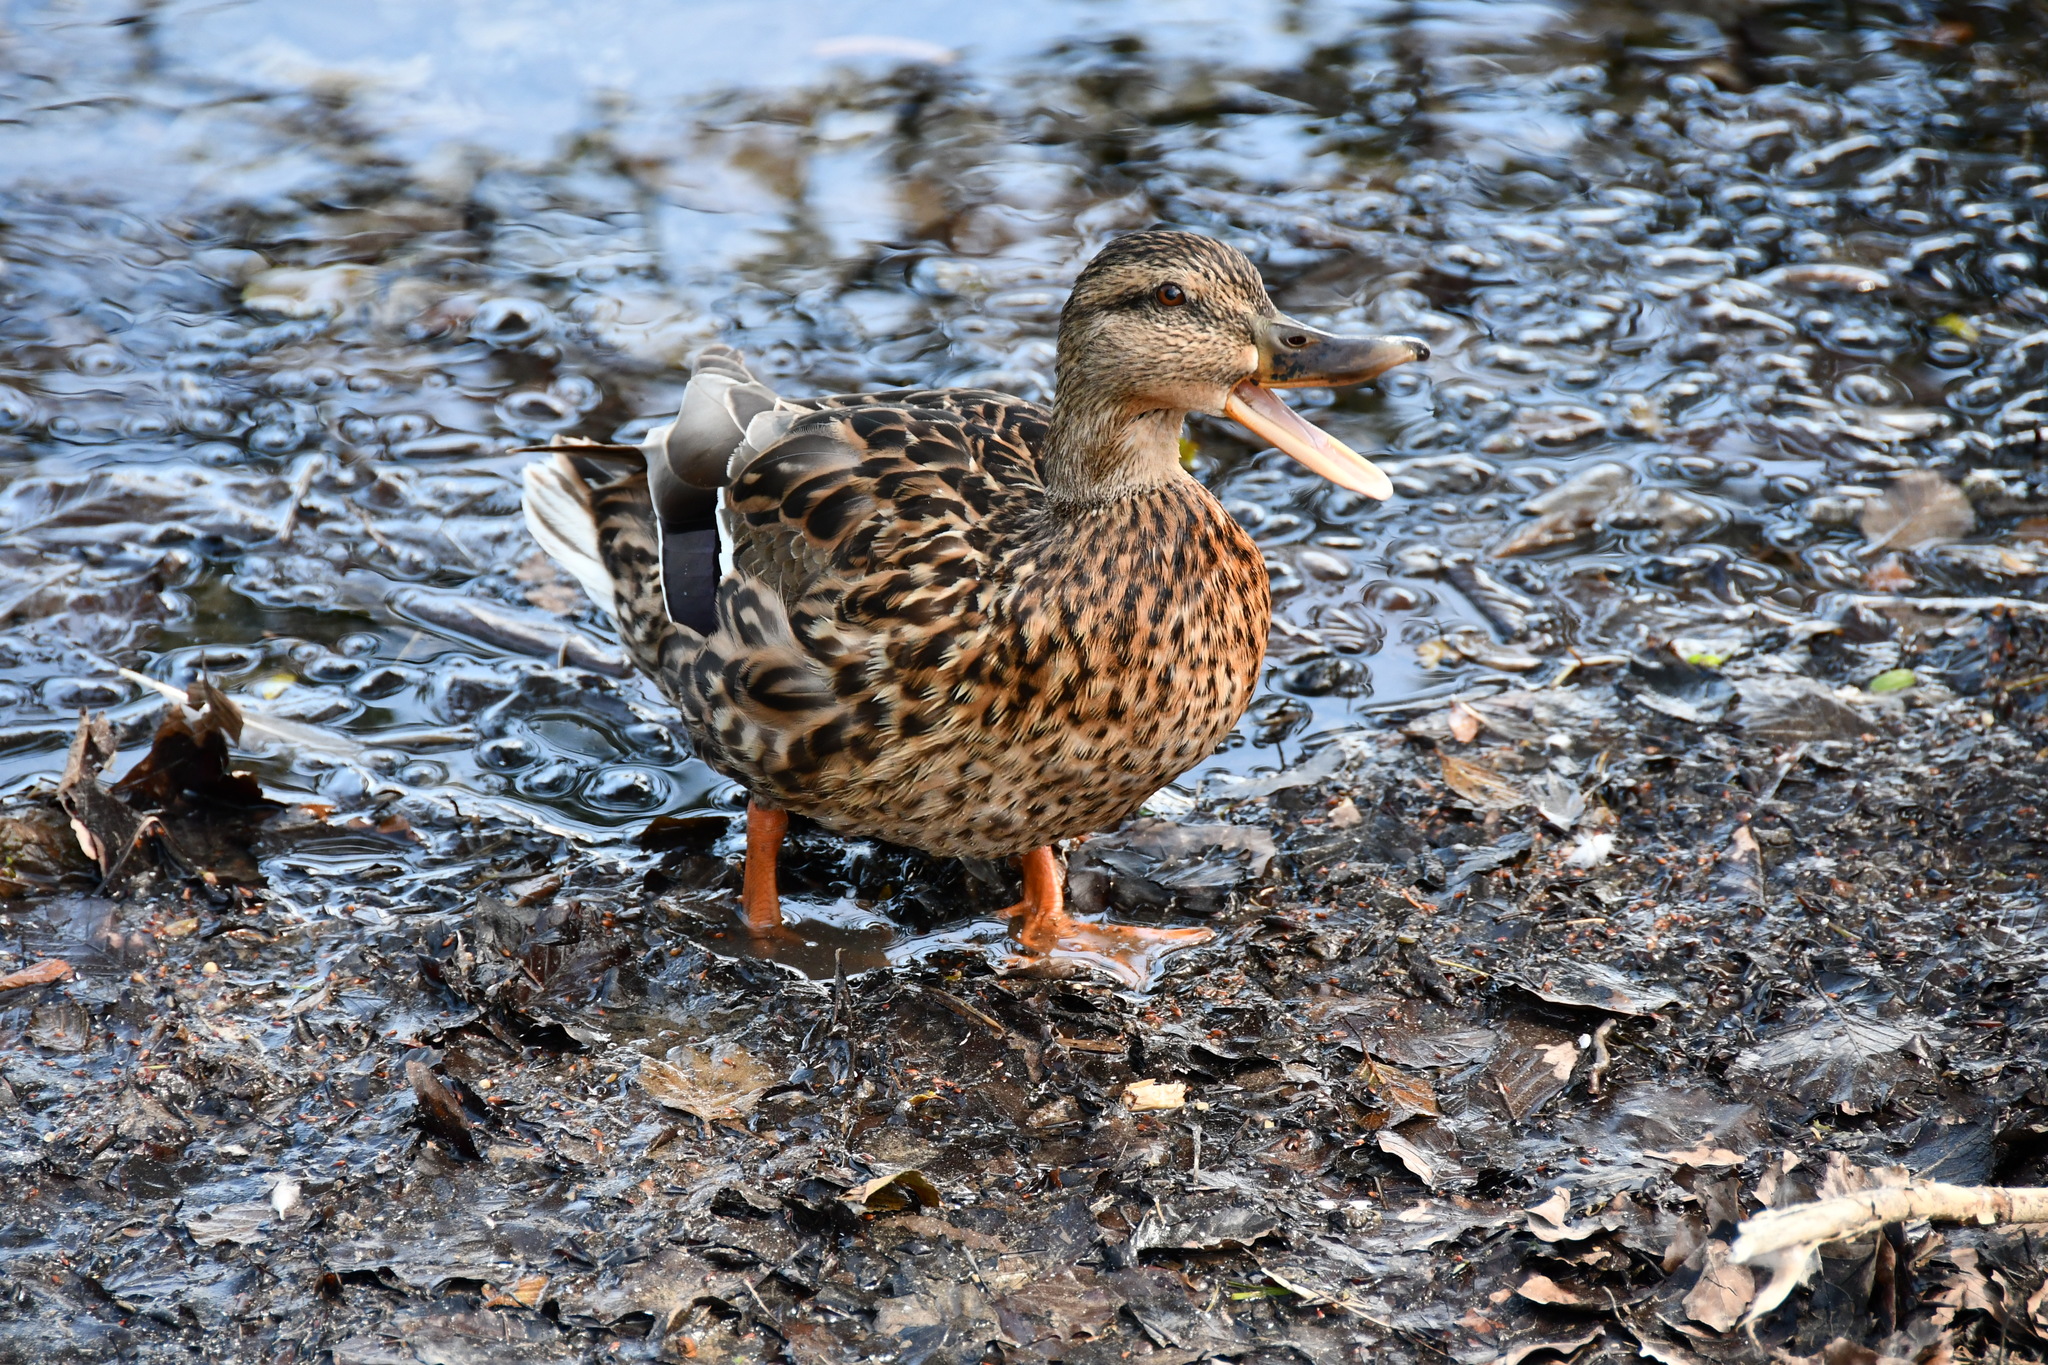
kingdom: Animalia
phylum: Chordata
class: Aves
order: Anseriformes
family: Anatidae
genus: Anas
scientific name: Anas platyrhynchos
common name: Mallard
